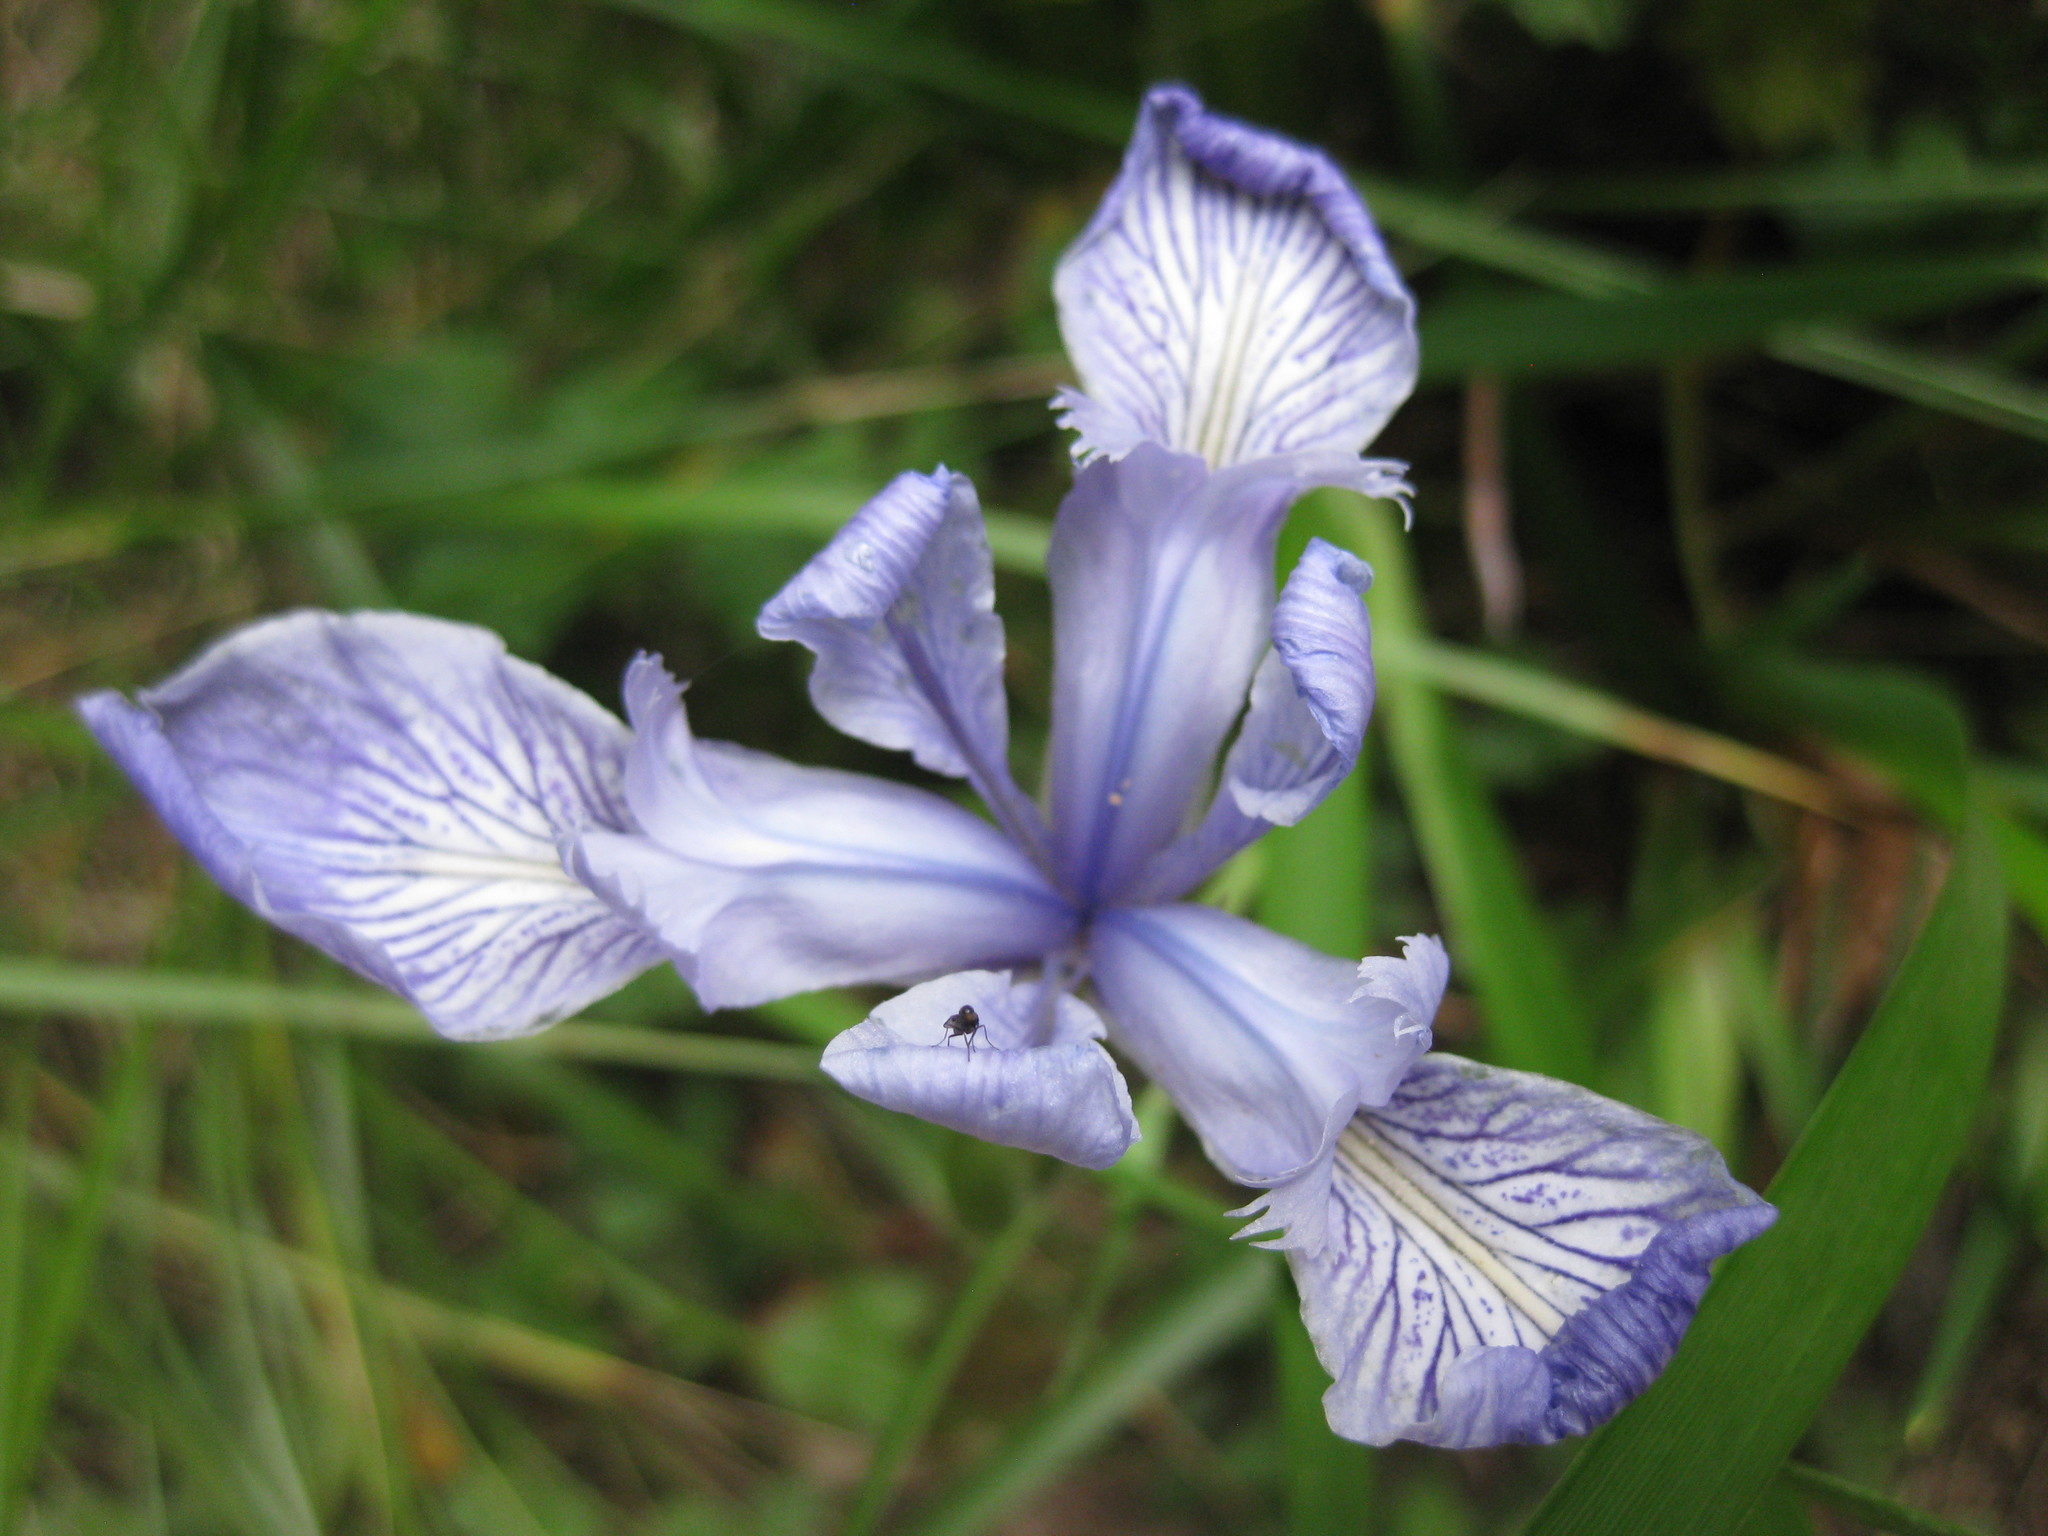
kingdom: Plantae
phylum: Tracheophyta
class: Liliopsida
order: Asparagales
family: Iridaceae
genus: Iris
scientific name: Iris douglasiana
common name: Marin iris
